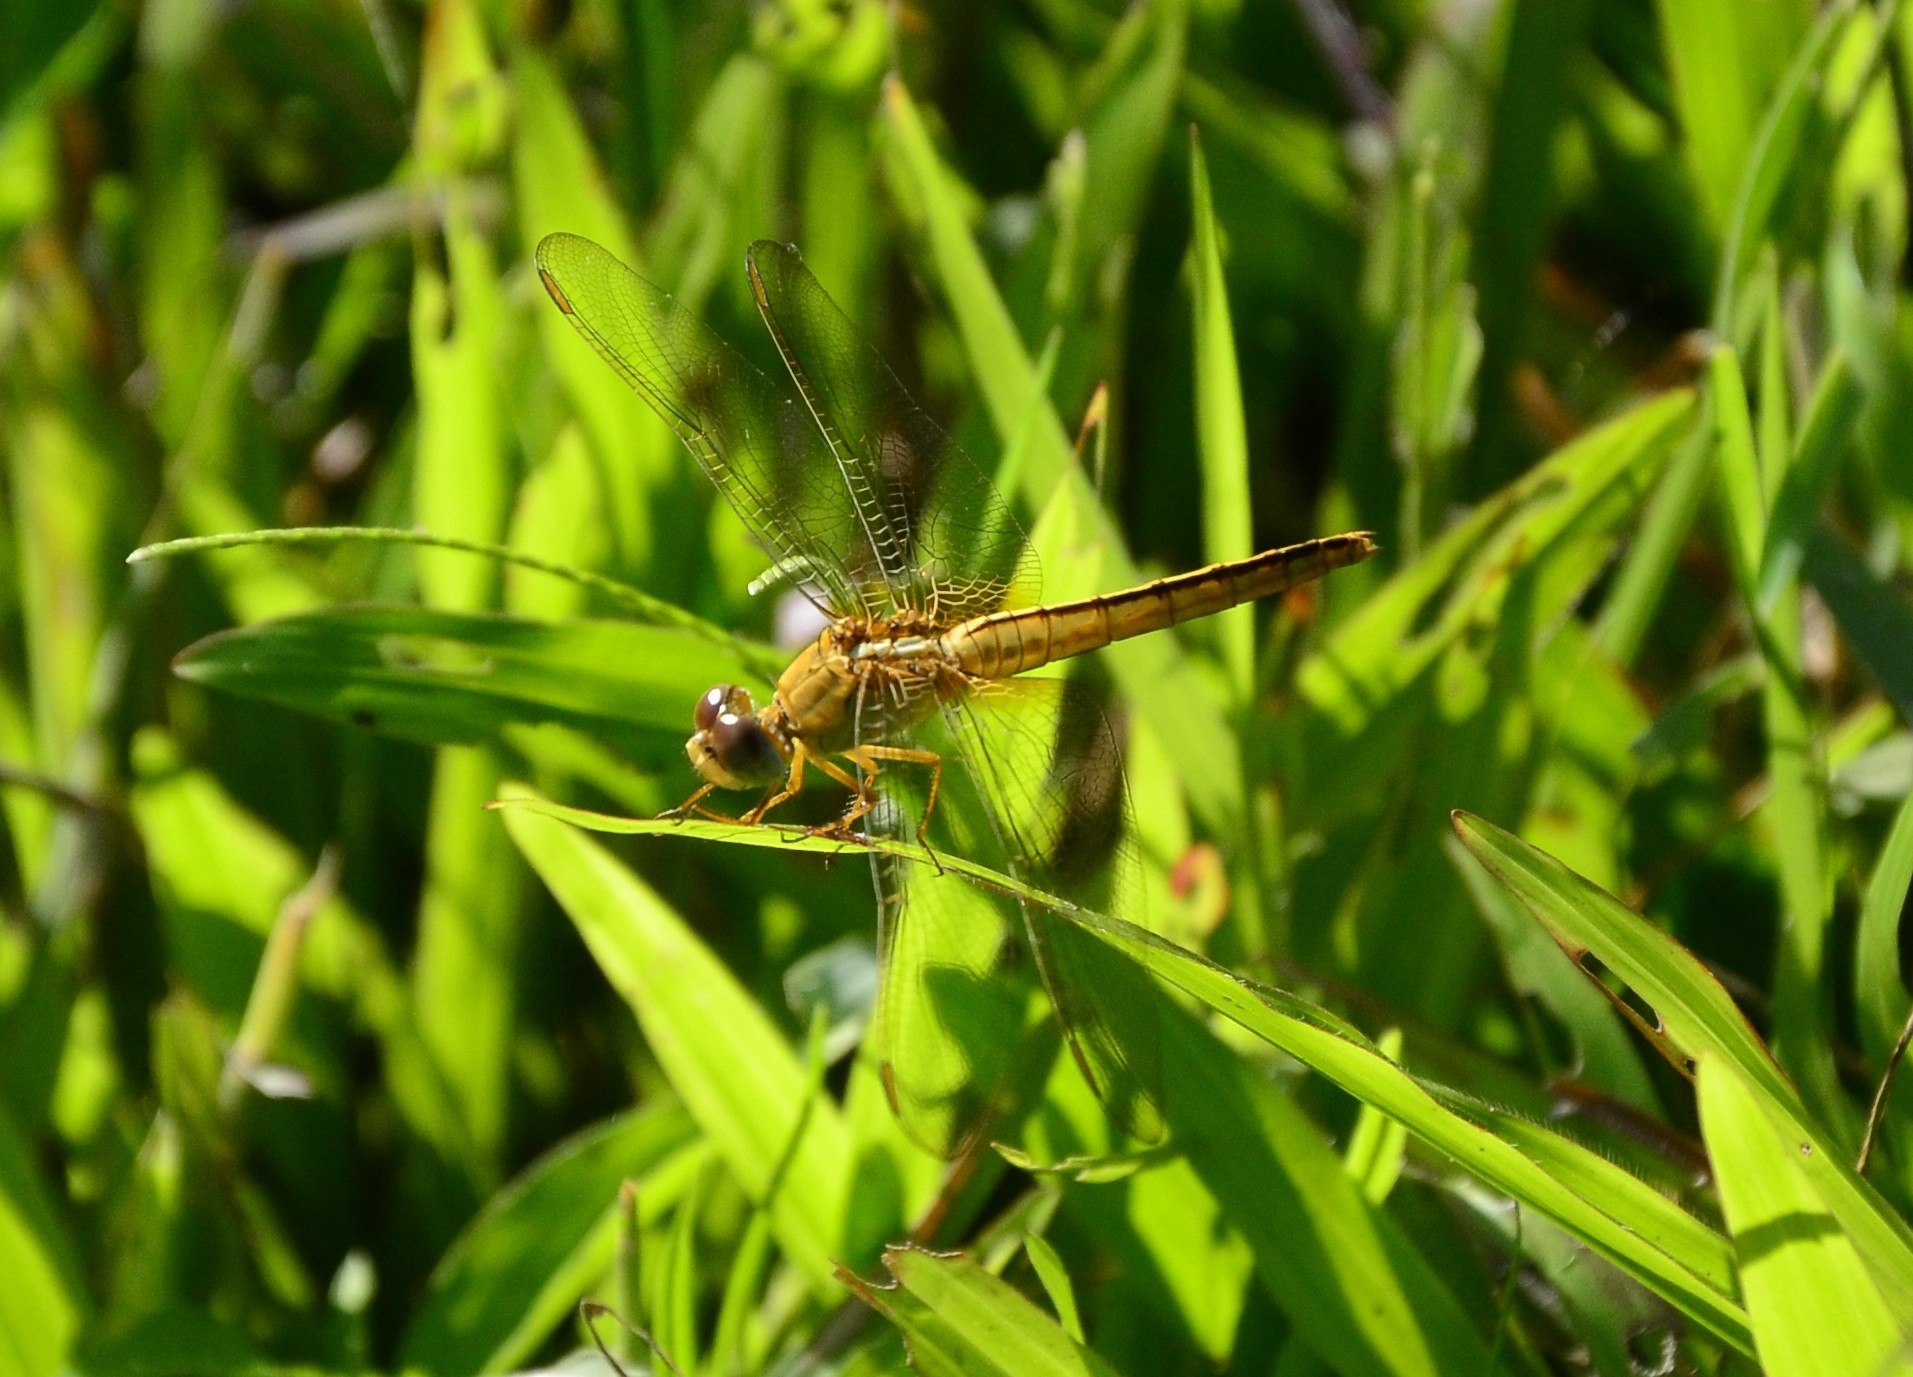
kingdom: Animalia
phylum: Arthropoda
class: Insecta
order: Odonata
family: Libellulidae
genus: Crocothemis
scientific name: Crocothemis servilia
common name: Scarlet skimmer
